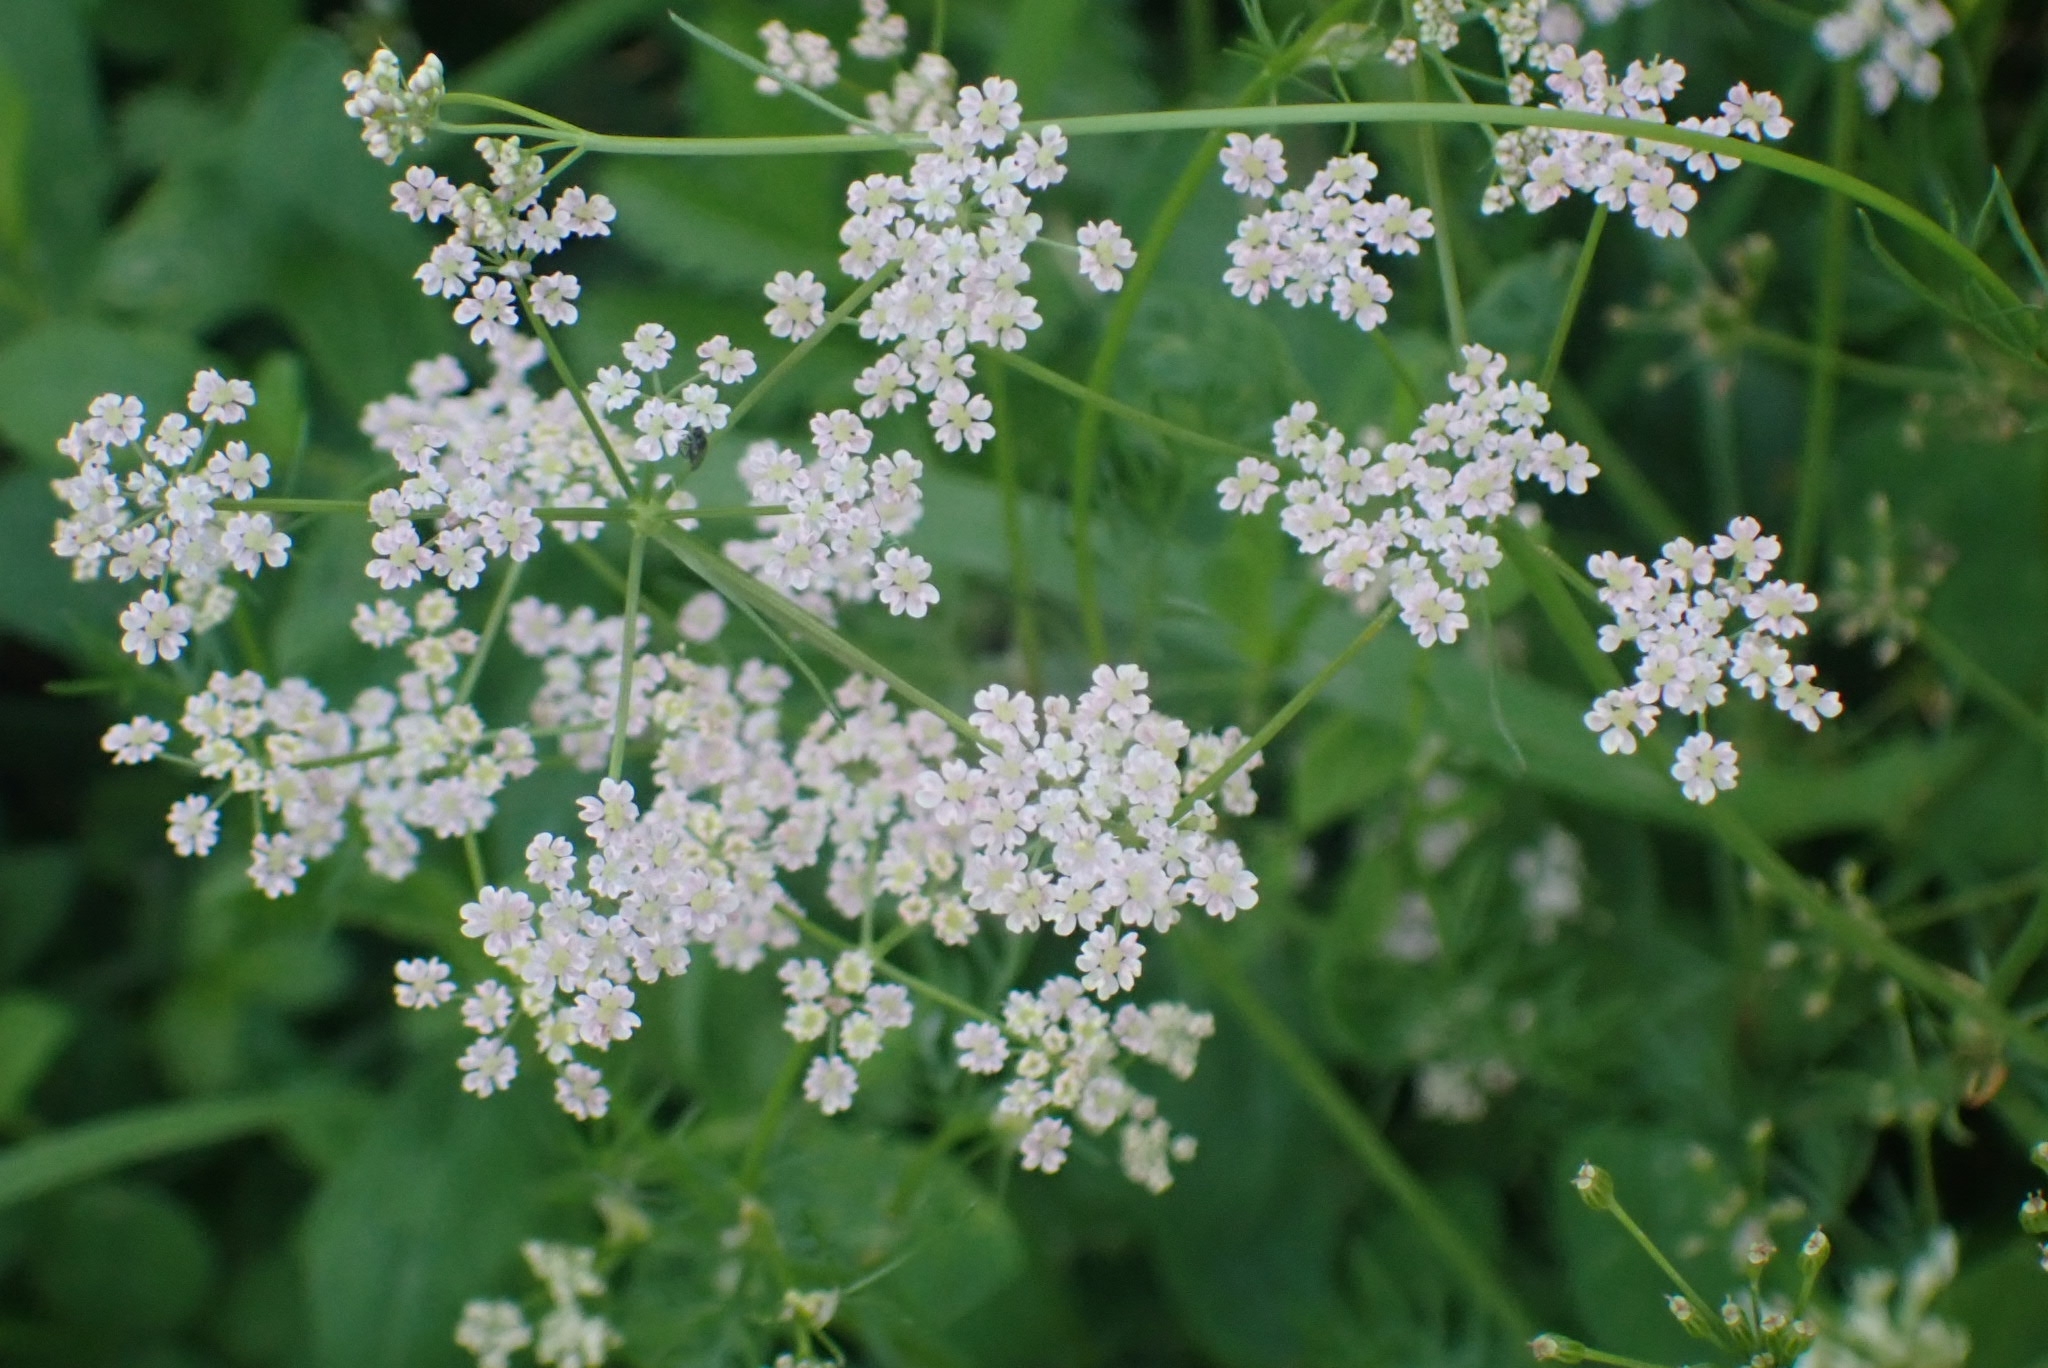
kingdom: Plantae
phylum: Tracheophyta
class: Magnoliopsida
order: Apiales
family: Apiaceae
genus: Carum
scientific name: Carum carvi
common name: Caraway
